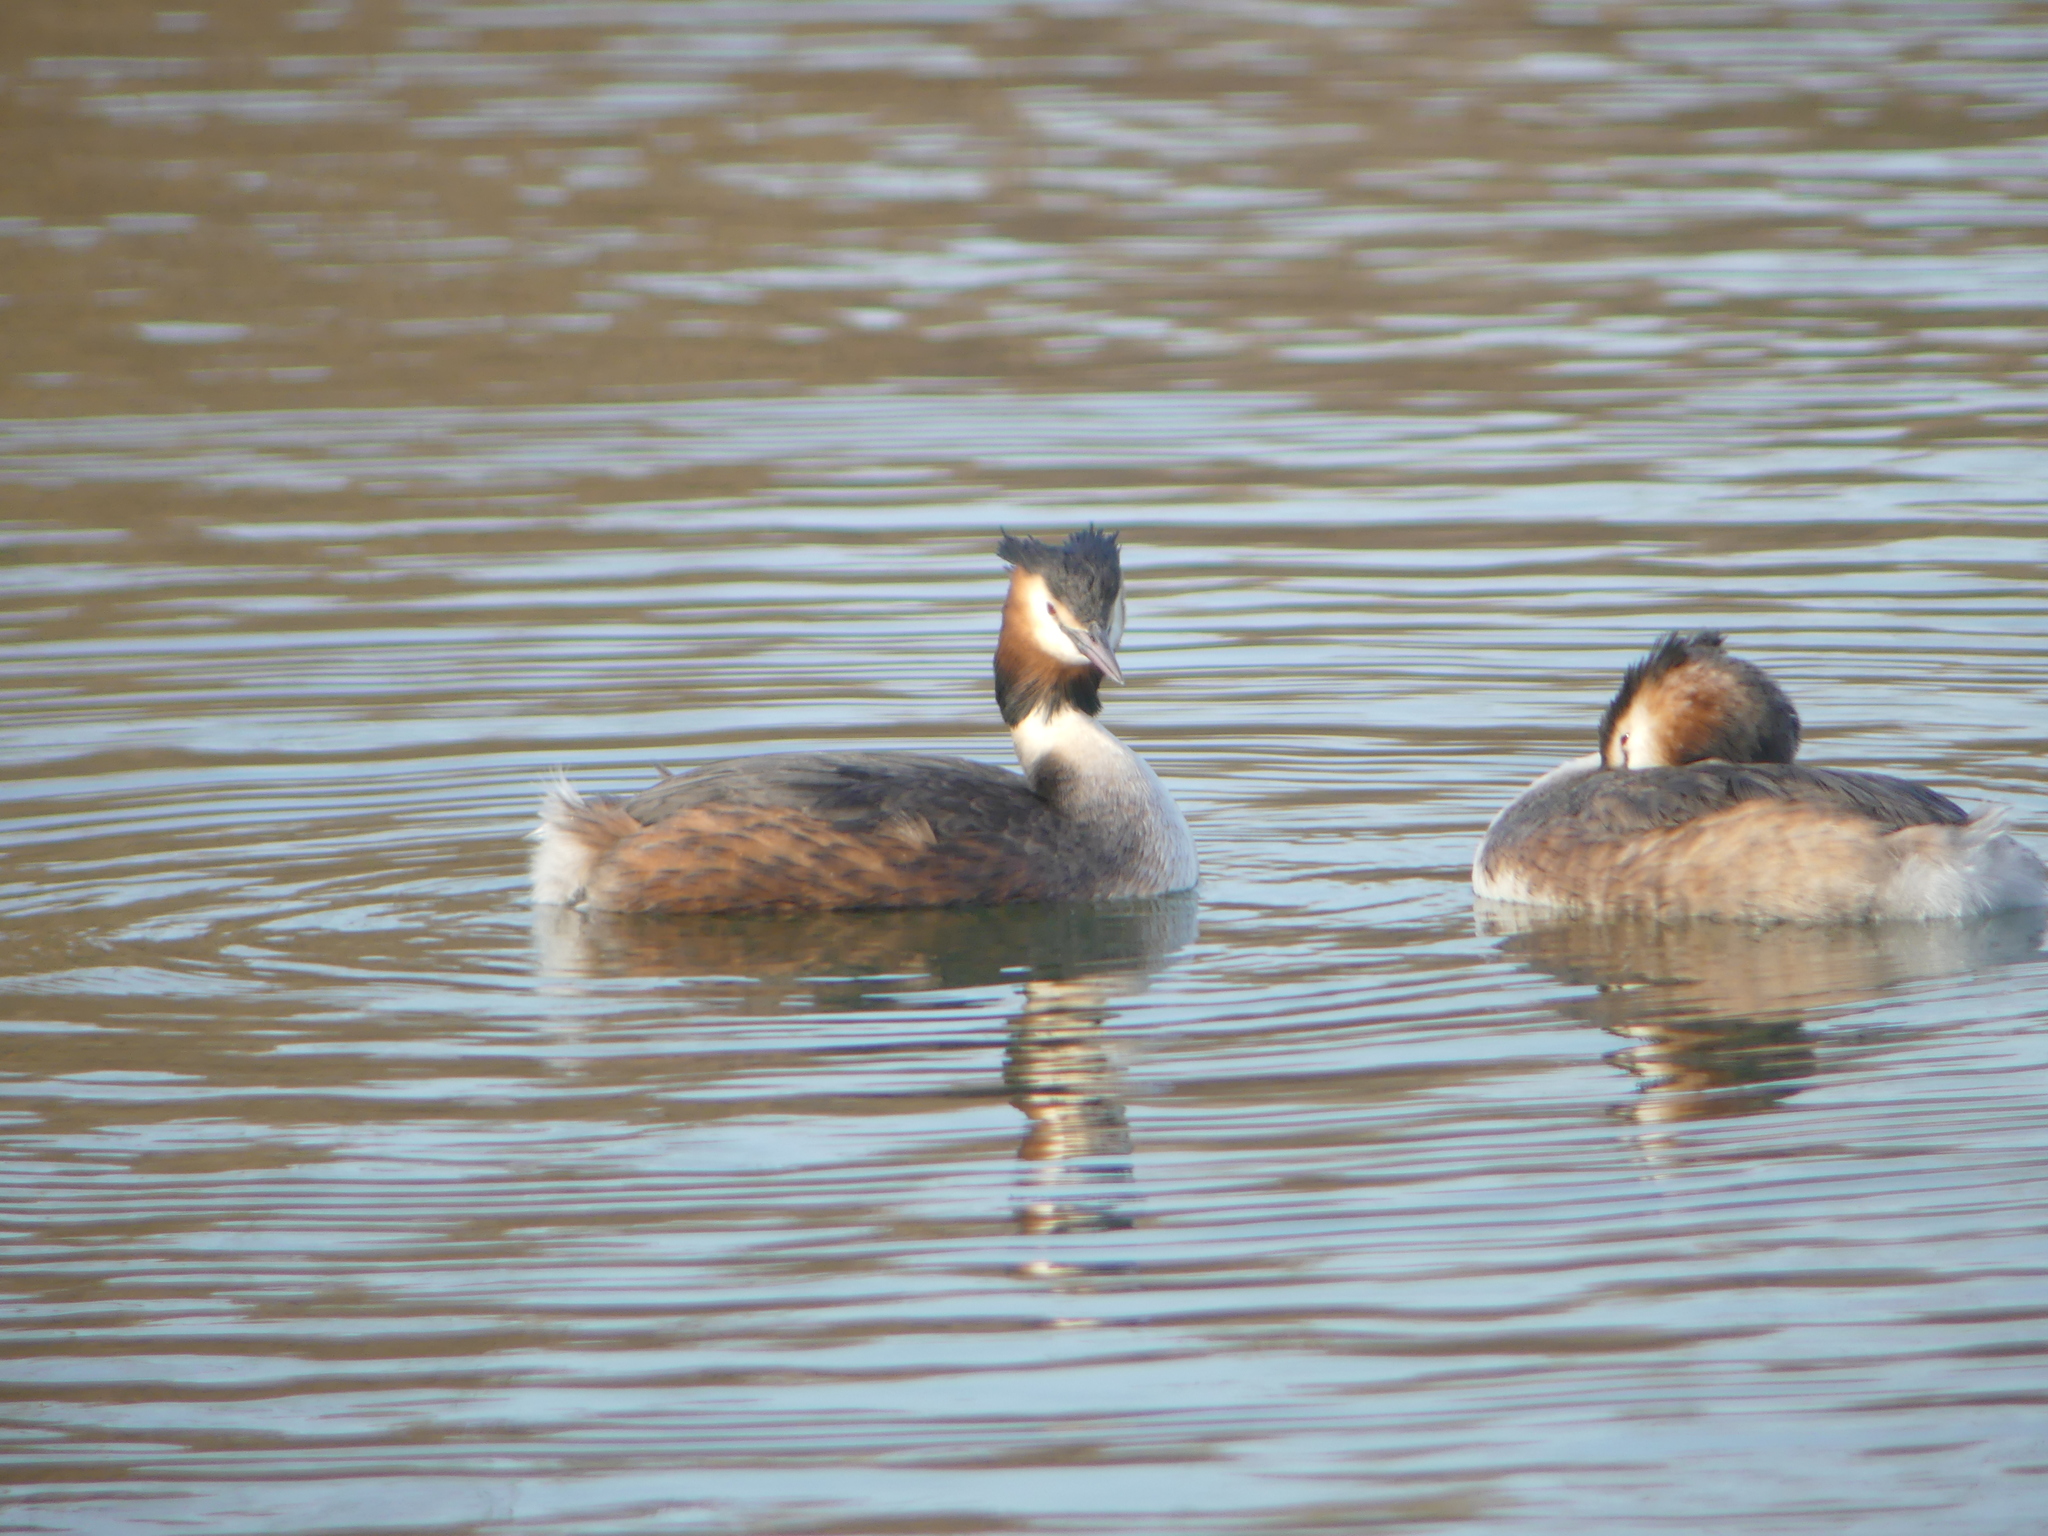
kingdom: Animalia
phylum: Chordata
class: Aves
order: Podicipediformes
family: Podicipedidae
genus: Podiceps
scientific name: Podiceps cristatus
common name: Great crested grebe
